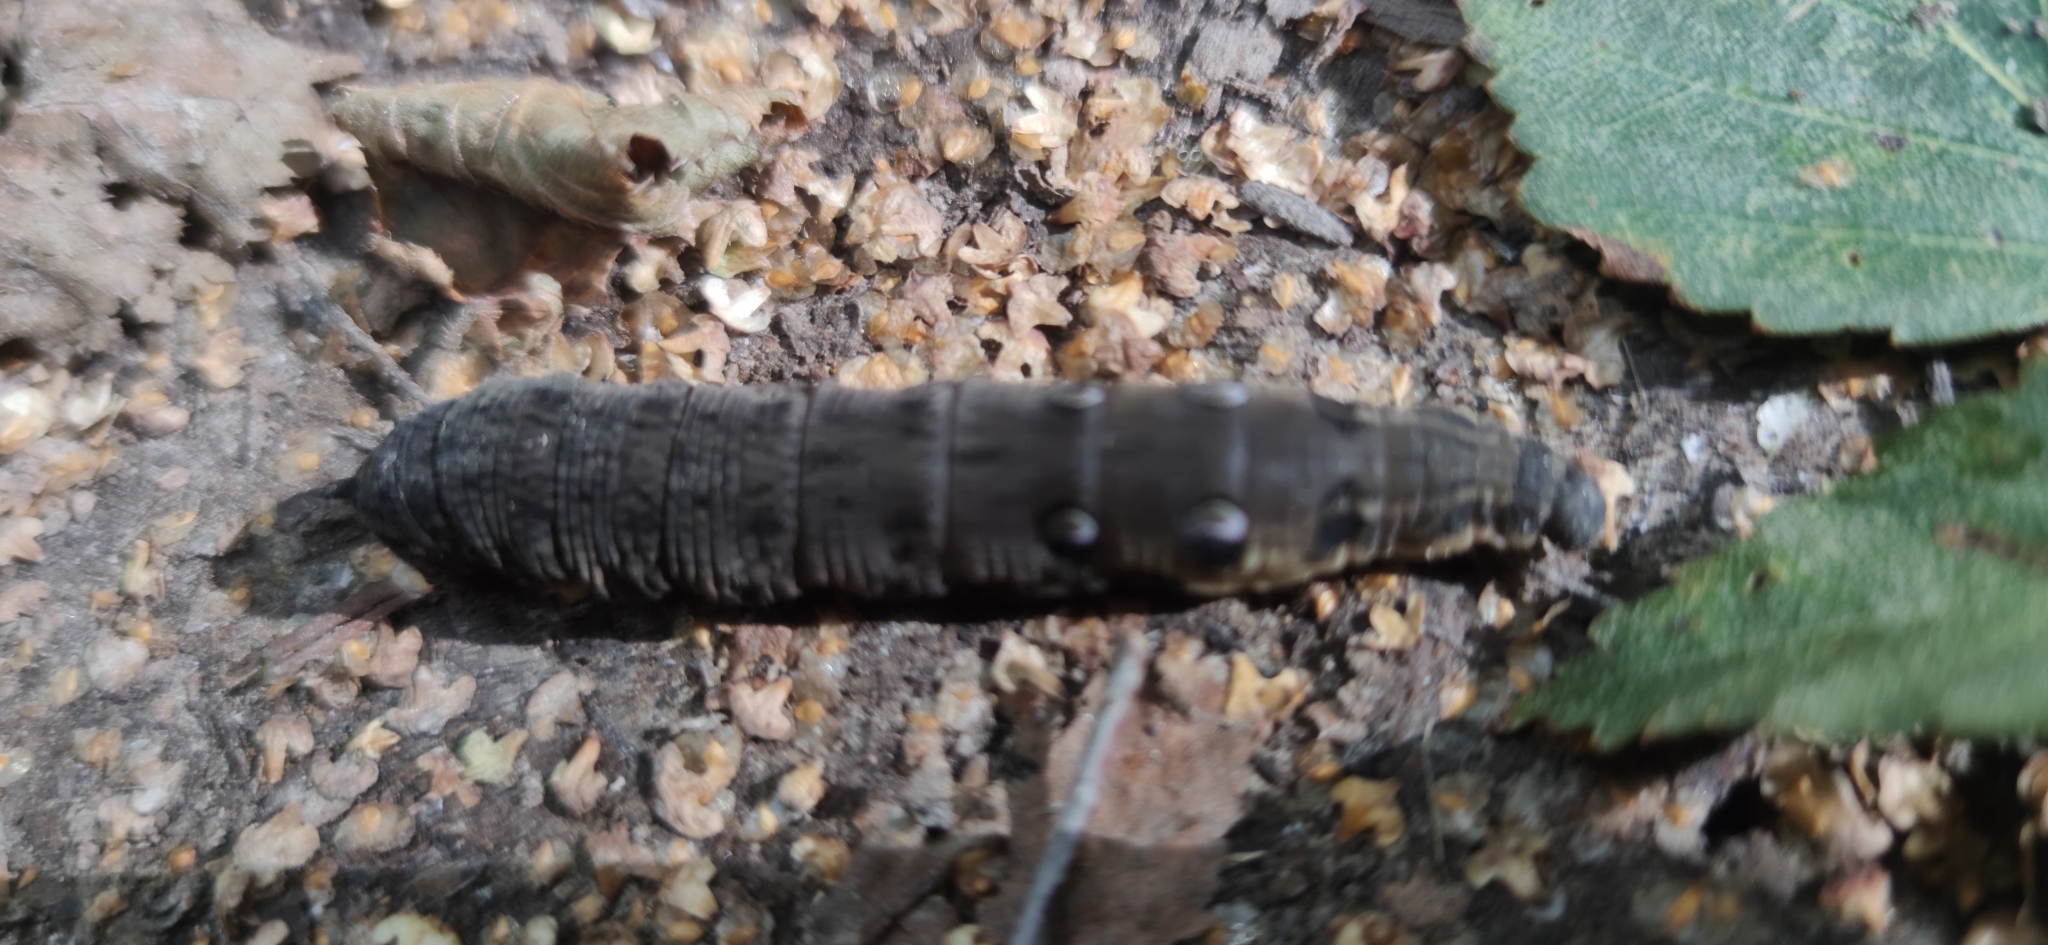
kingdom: Animalia
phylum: Arthropoda
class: Insecta
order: Lepidoptera
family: Sphingidae
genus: Deilephila
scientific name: Deilephila elpenor
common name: Elephant hawk-moth
